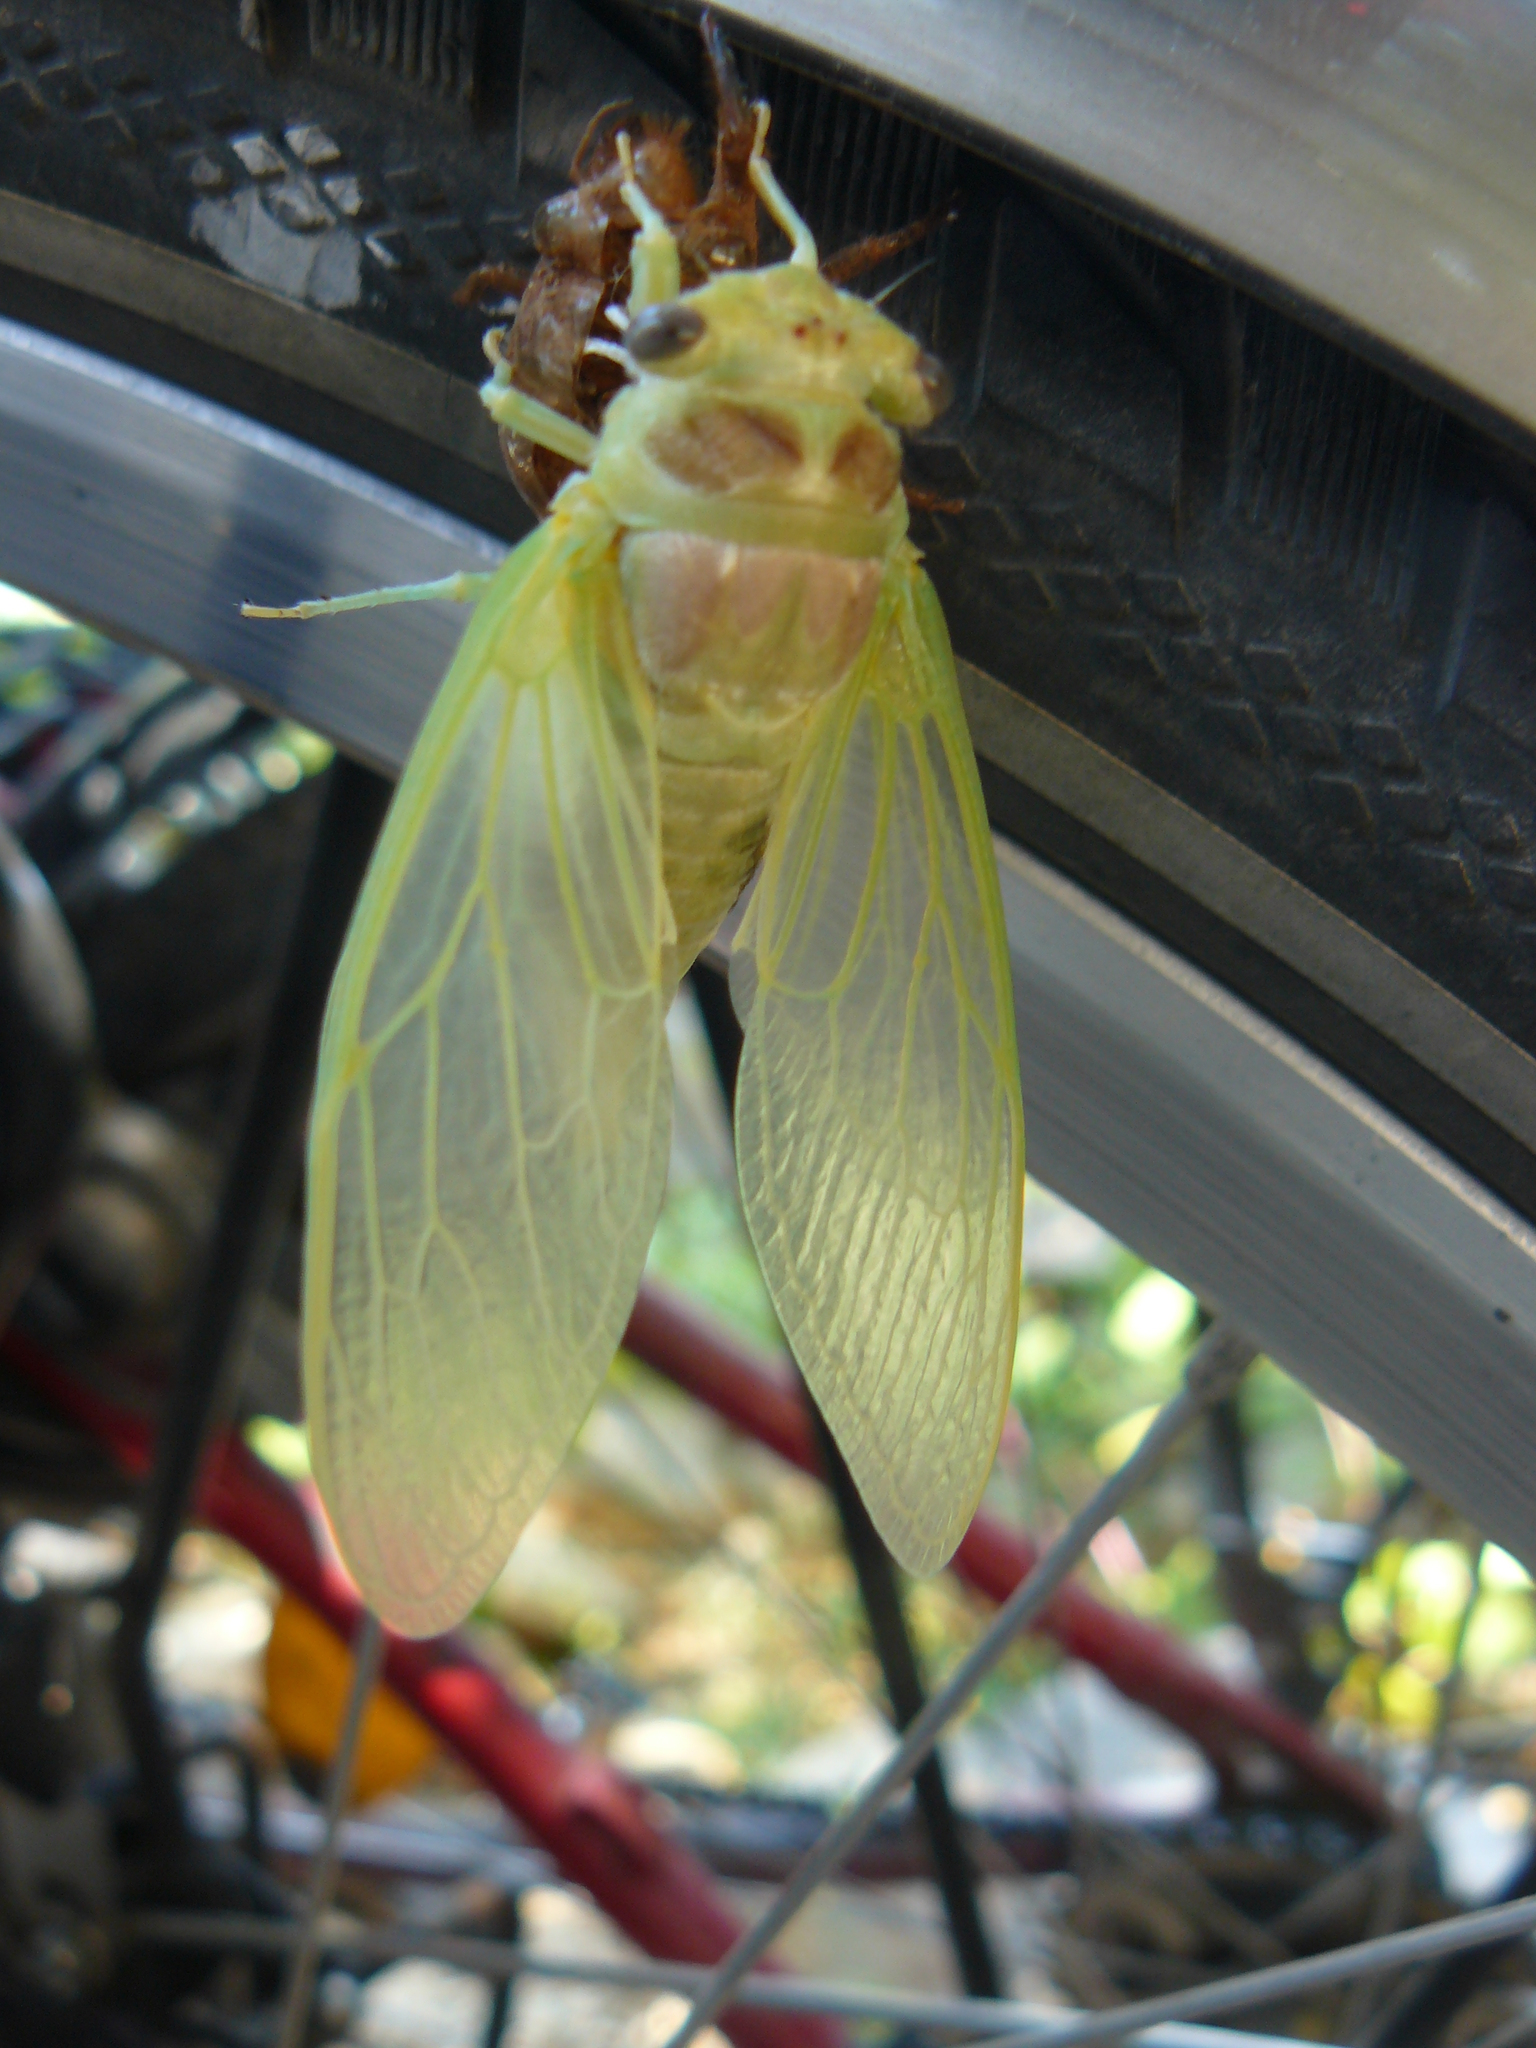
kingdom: Animalia
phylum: Arthropoda
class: Insecta
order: Hemiptera
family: Cicadidae
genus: Lyristes
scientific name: Lyristes plebejus
